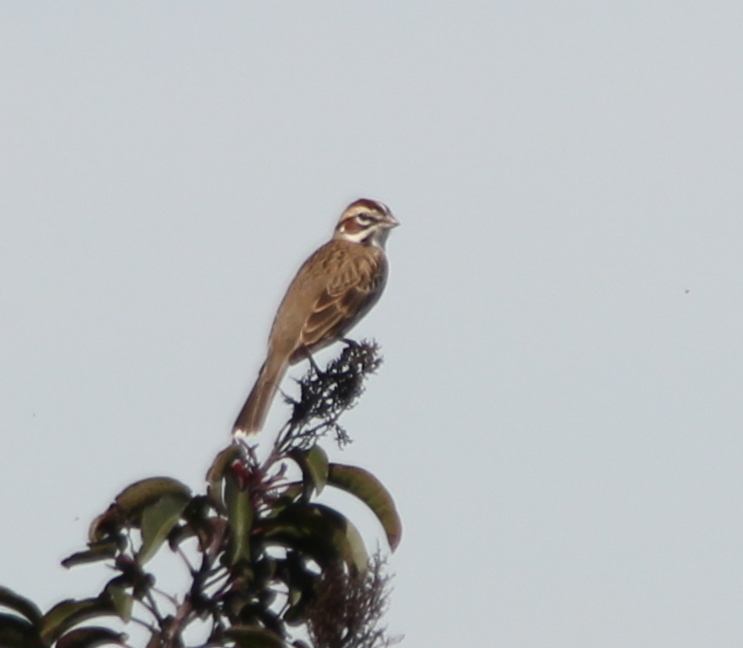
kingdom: Animalia
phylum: Chordata
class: Aves
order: Passeriformes
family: Passerellidae
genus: Chondestes
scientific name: Chondestes grammacus
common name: Lark sparrow
